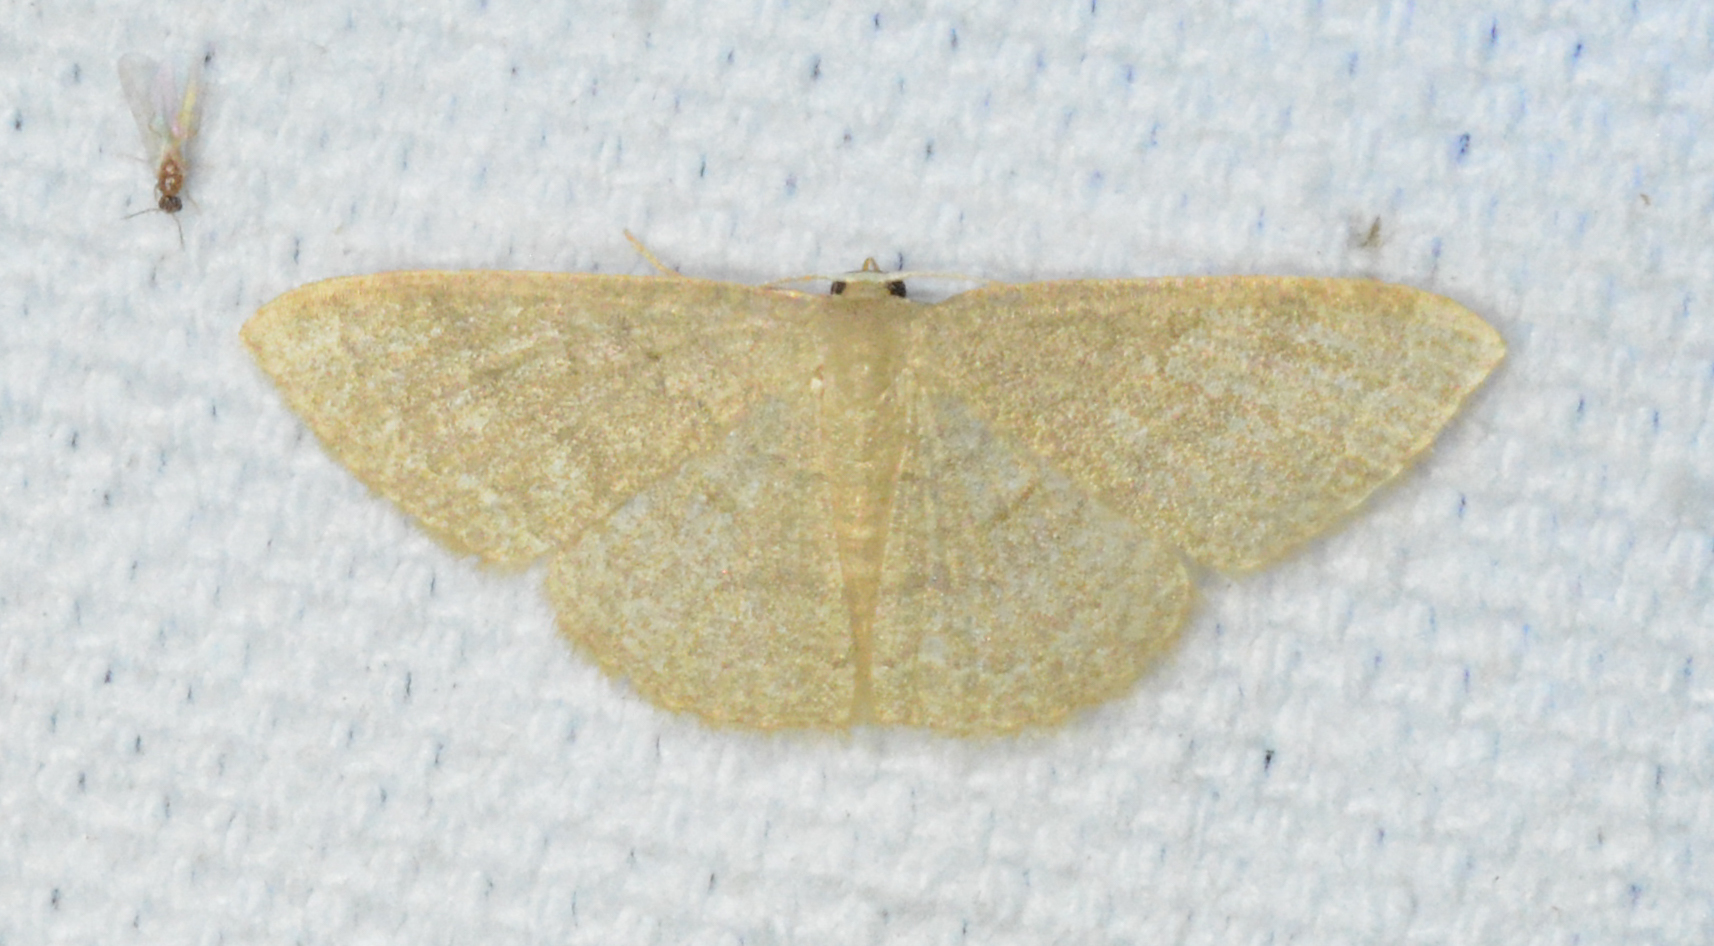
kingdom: Animalia
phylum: Arthropoda
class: Insecta
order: Lepidoptera
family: Geometridae
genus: Pleuroprucha
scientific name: Pleuroprucha insulsaria
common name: Common tan wave
